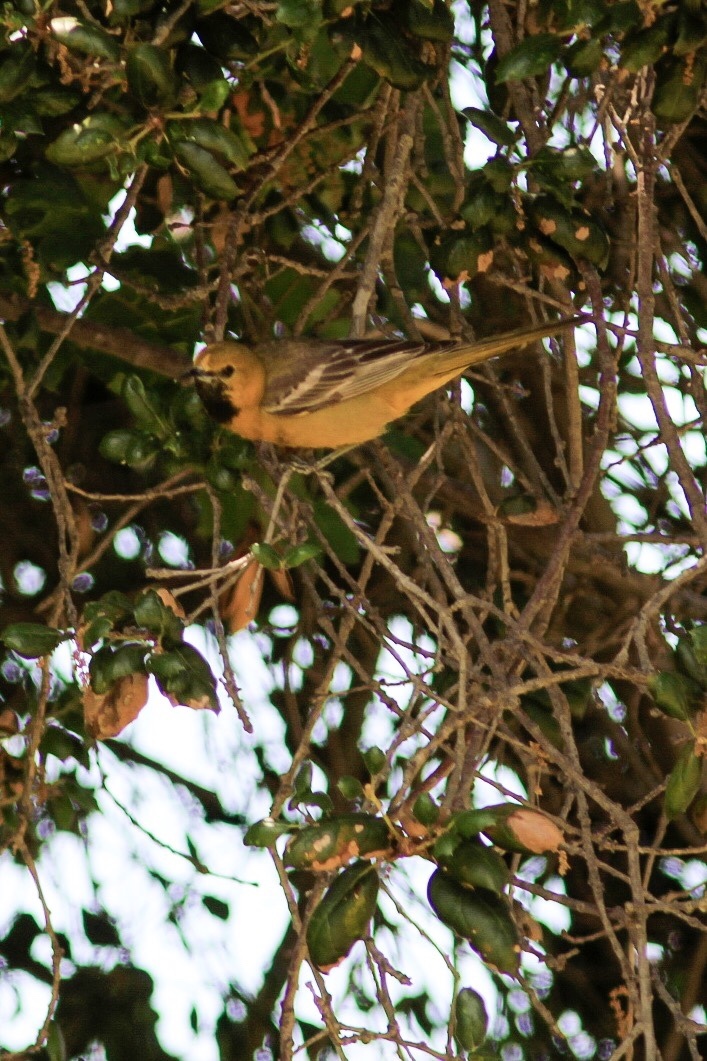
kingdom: Animalia
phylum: Chordata
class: Aves
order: Passeriformes
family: Icteridae
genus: Icterus
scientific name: Icterus cucullatus
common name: Hooded oriole
